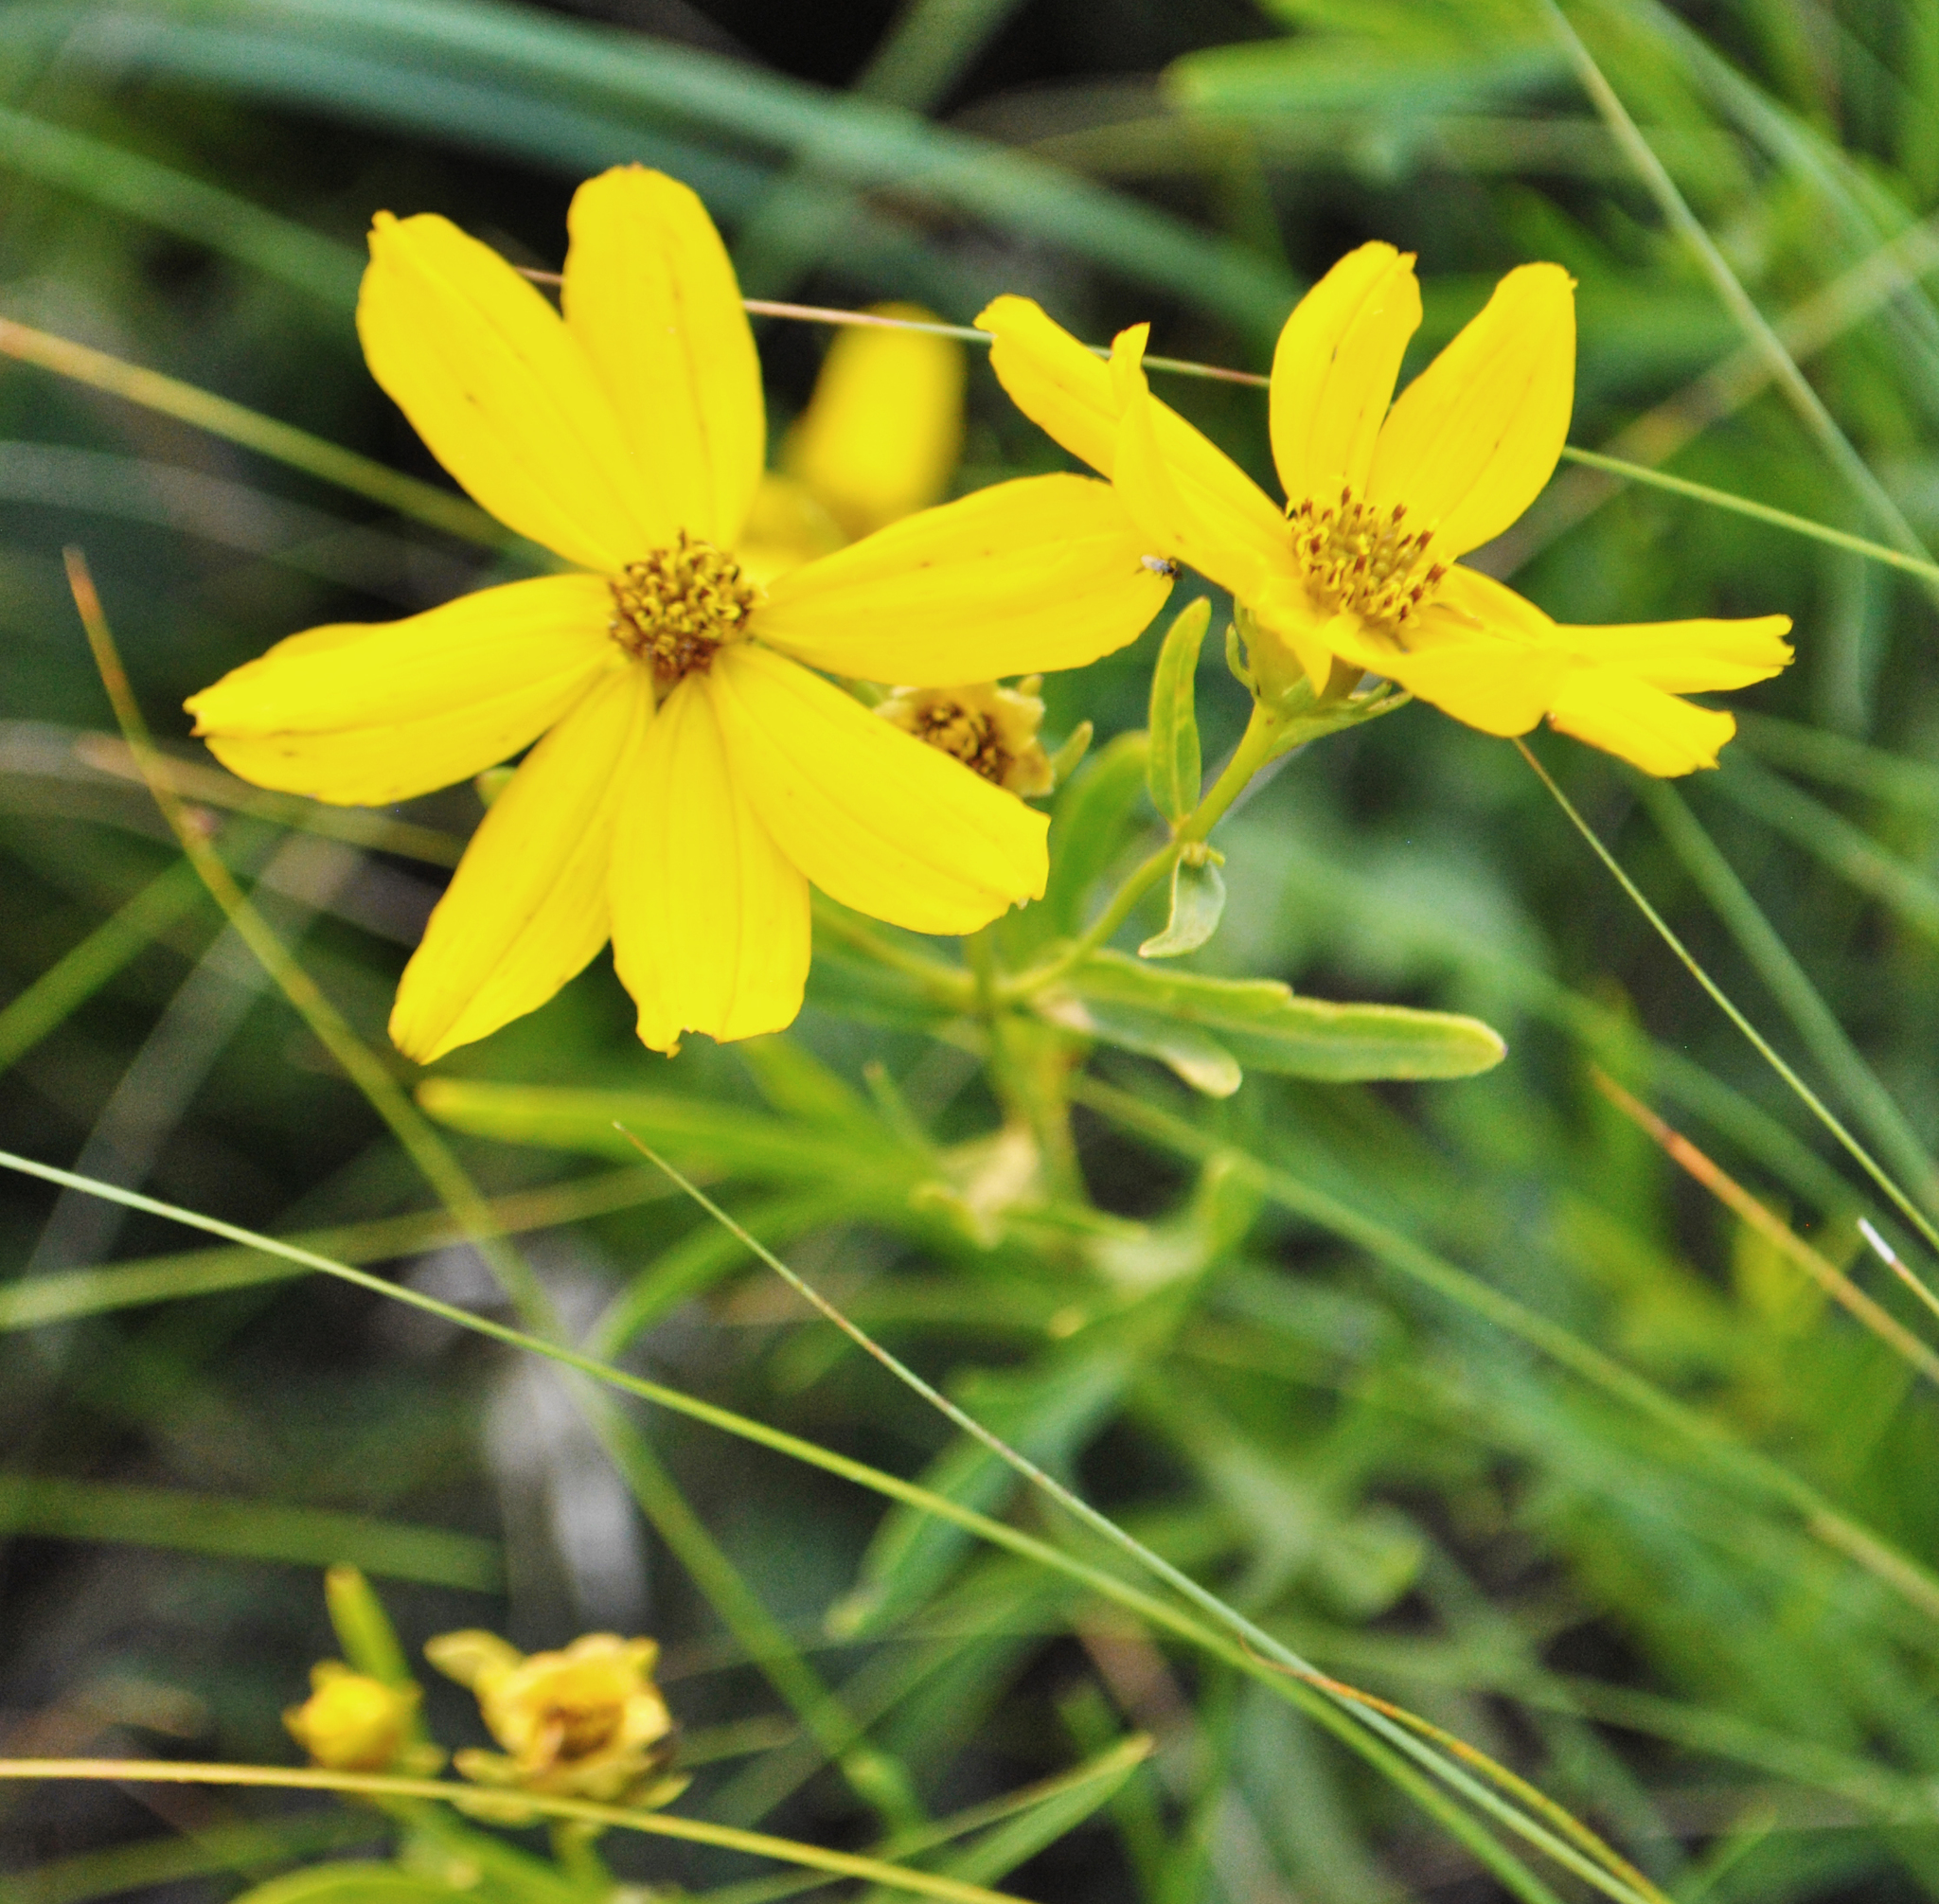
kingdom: Plantae
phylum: Tracheophyta
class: Magnoliopsida
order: Asterales
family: Asteraceae
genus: Coreopsis
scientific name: Coreopsis palmata
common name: Prairie coreopsis
